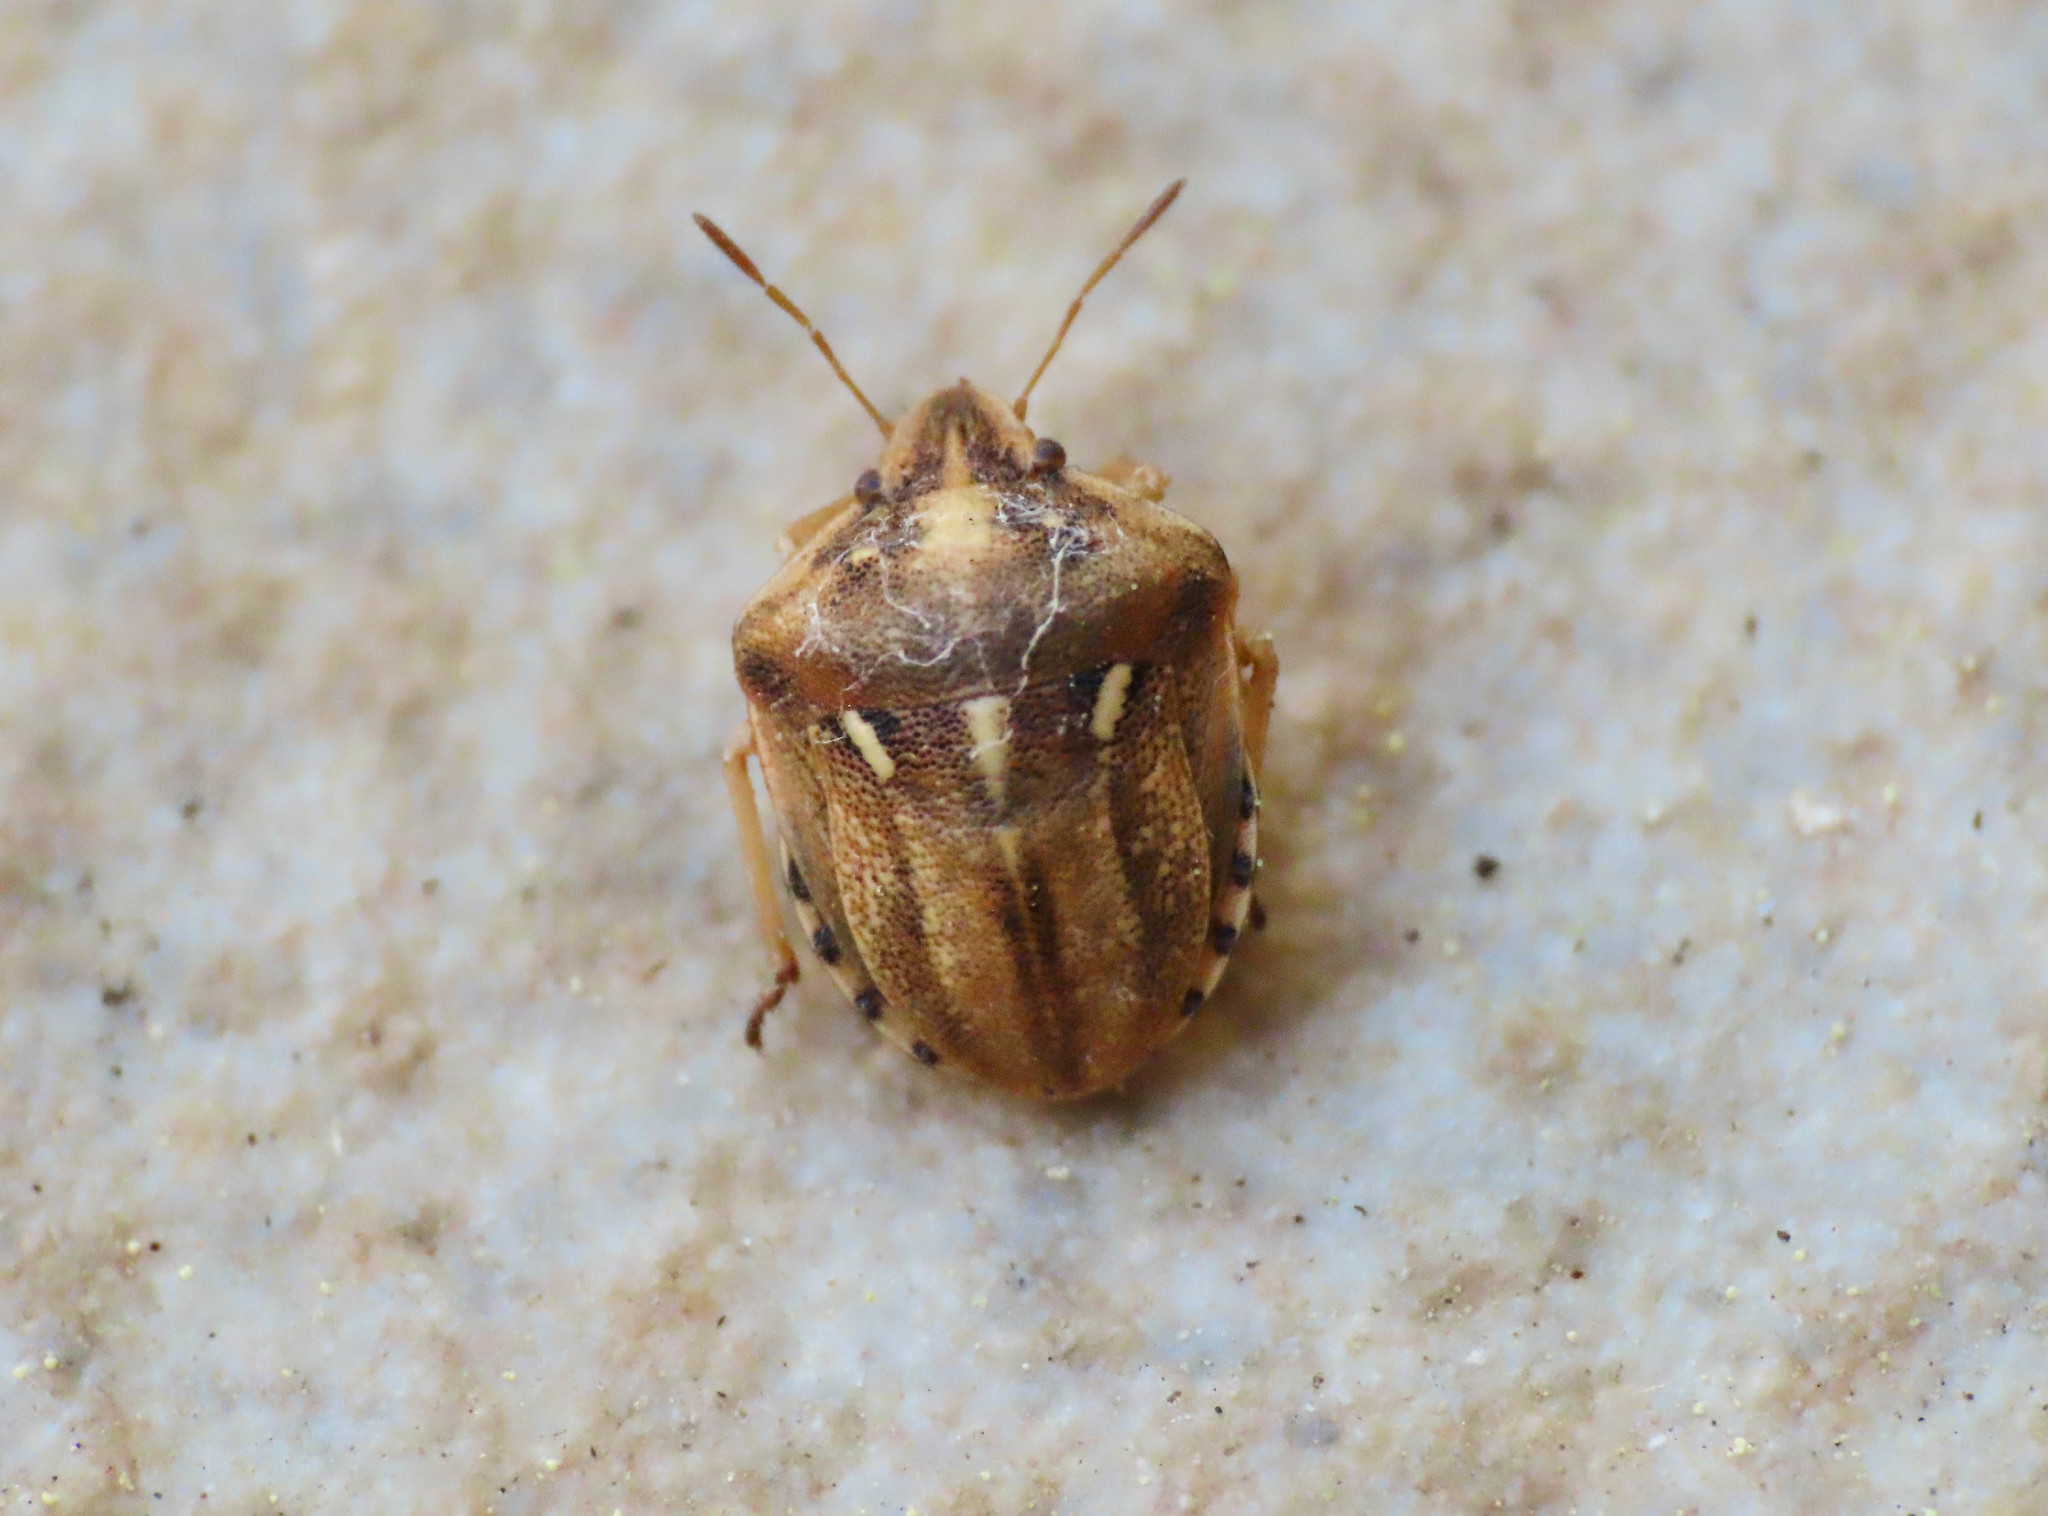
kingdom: Animalia
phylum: Arthropoda
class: Insecta
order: Hemiptera
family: Pentatomidae
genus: Derula
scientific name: Derula flavoguttata
